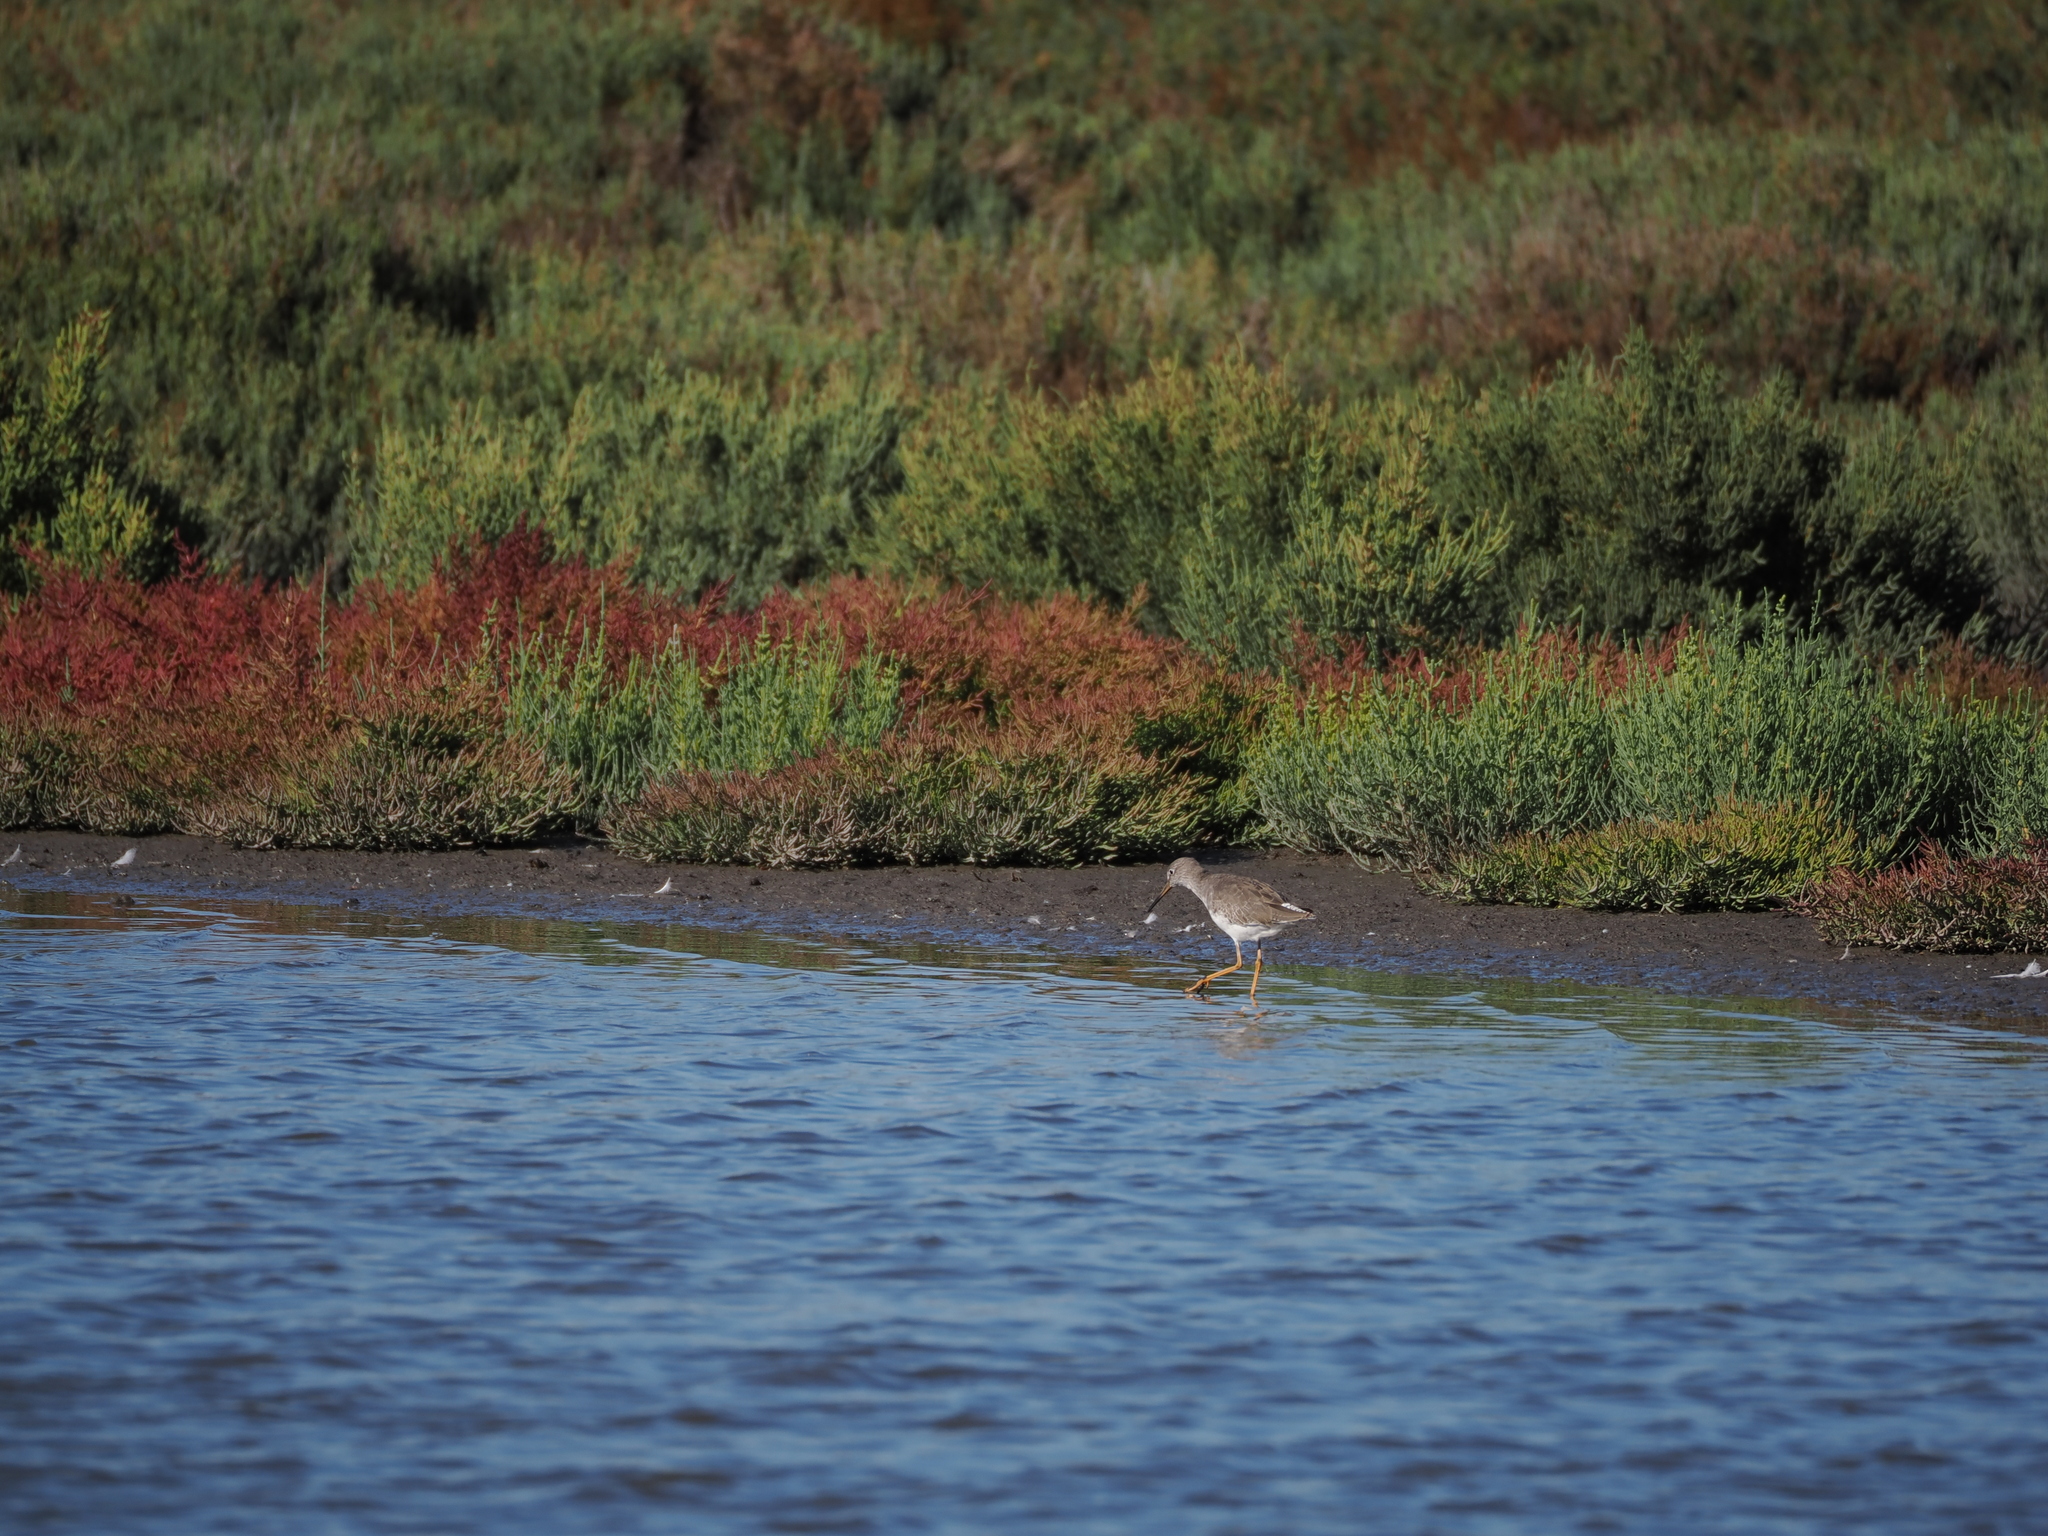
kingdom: Animalia
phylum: Chordata
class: Aves
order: Charadriiformes
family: Scolopacidae
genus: Tringa
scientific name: Tringa totanus
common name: Common redshank
